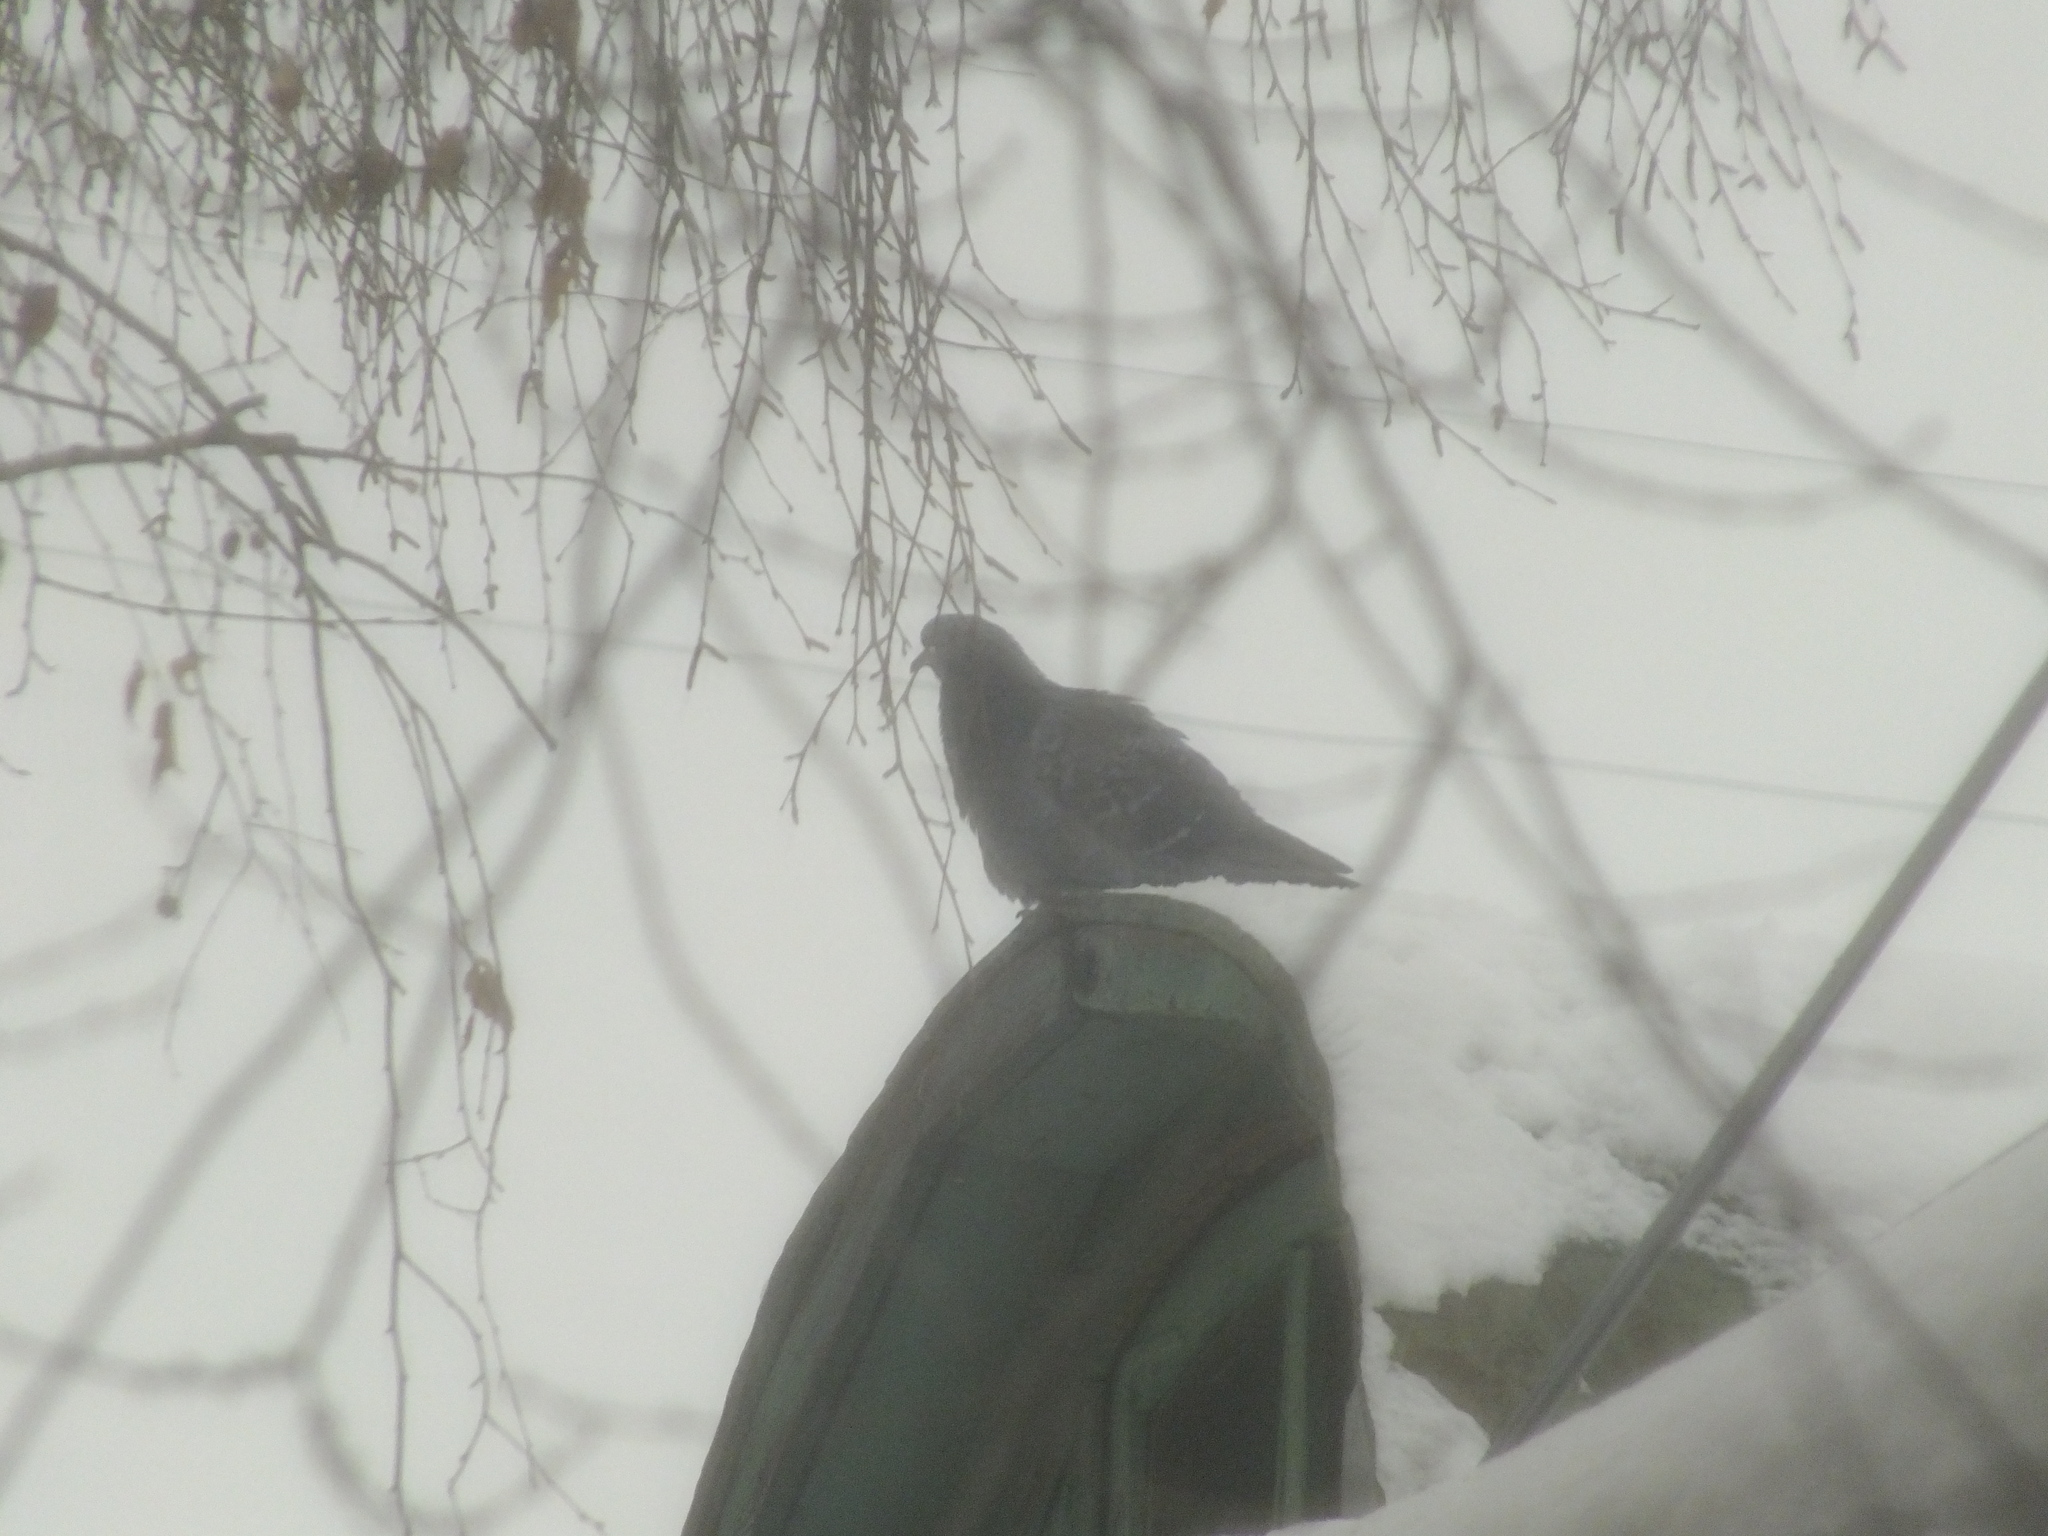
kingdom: Animalia
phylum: Chordata
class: Aves
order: Columbiformes
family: Columbidae
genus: Columba
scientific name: Columba livia
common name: Rock pigeon
